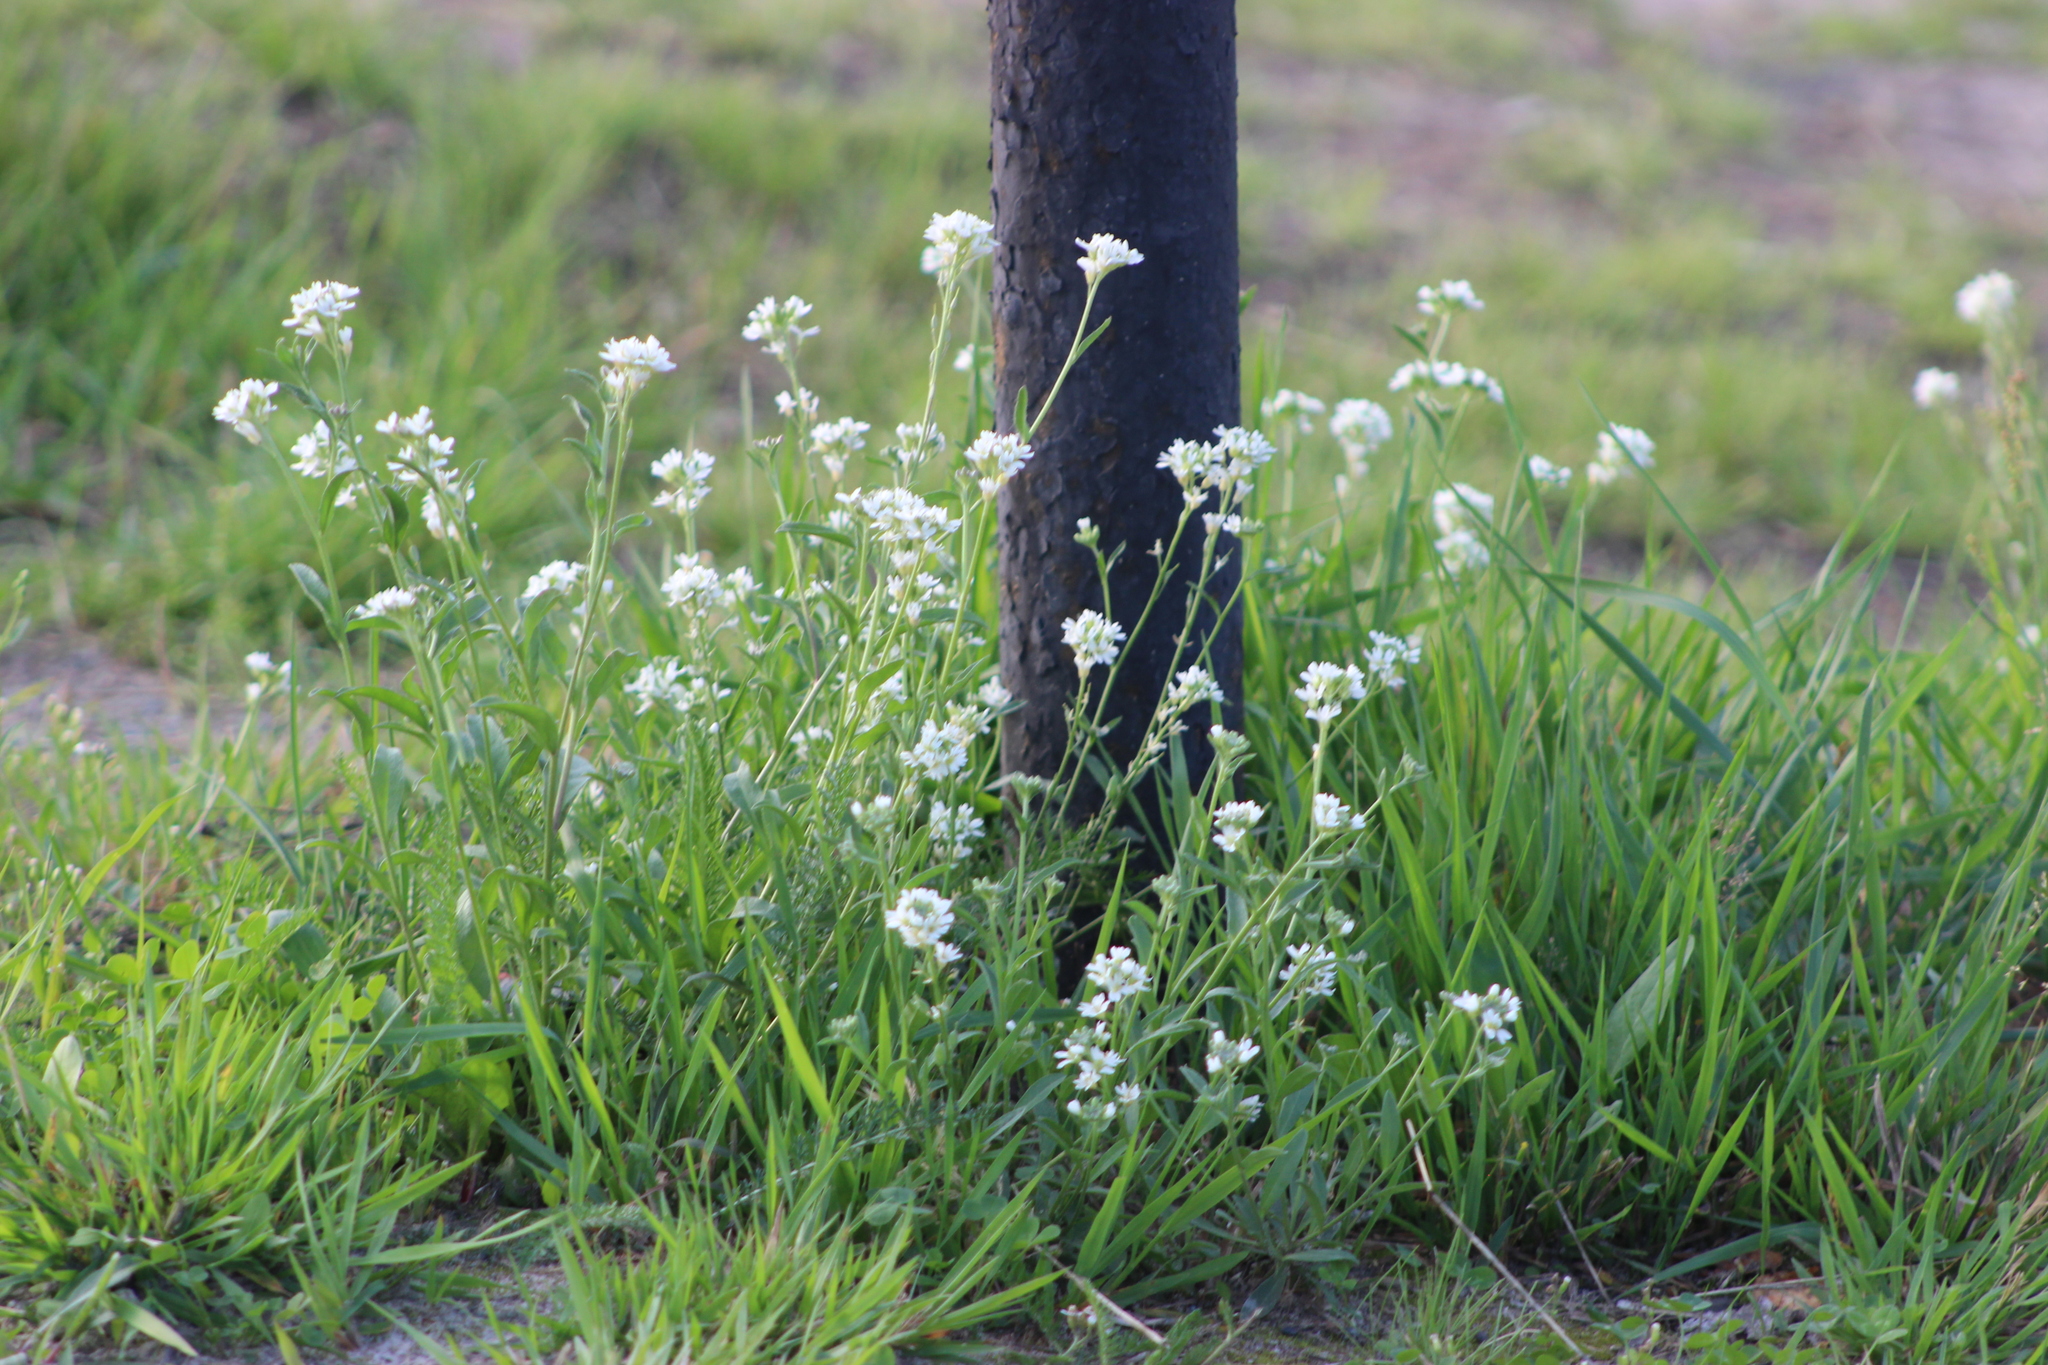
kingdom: Plantae
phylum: Tracheophyta
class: Magnoliopsida
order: Brassicales
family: Brassicaceae
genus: Berteroa
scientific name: Berteroa incana
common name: Hoary alison
